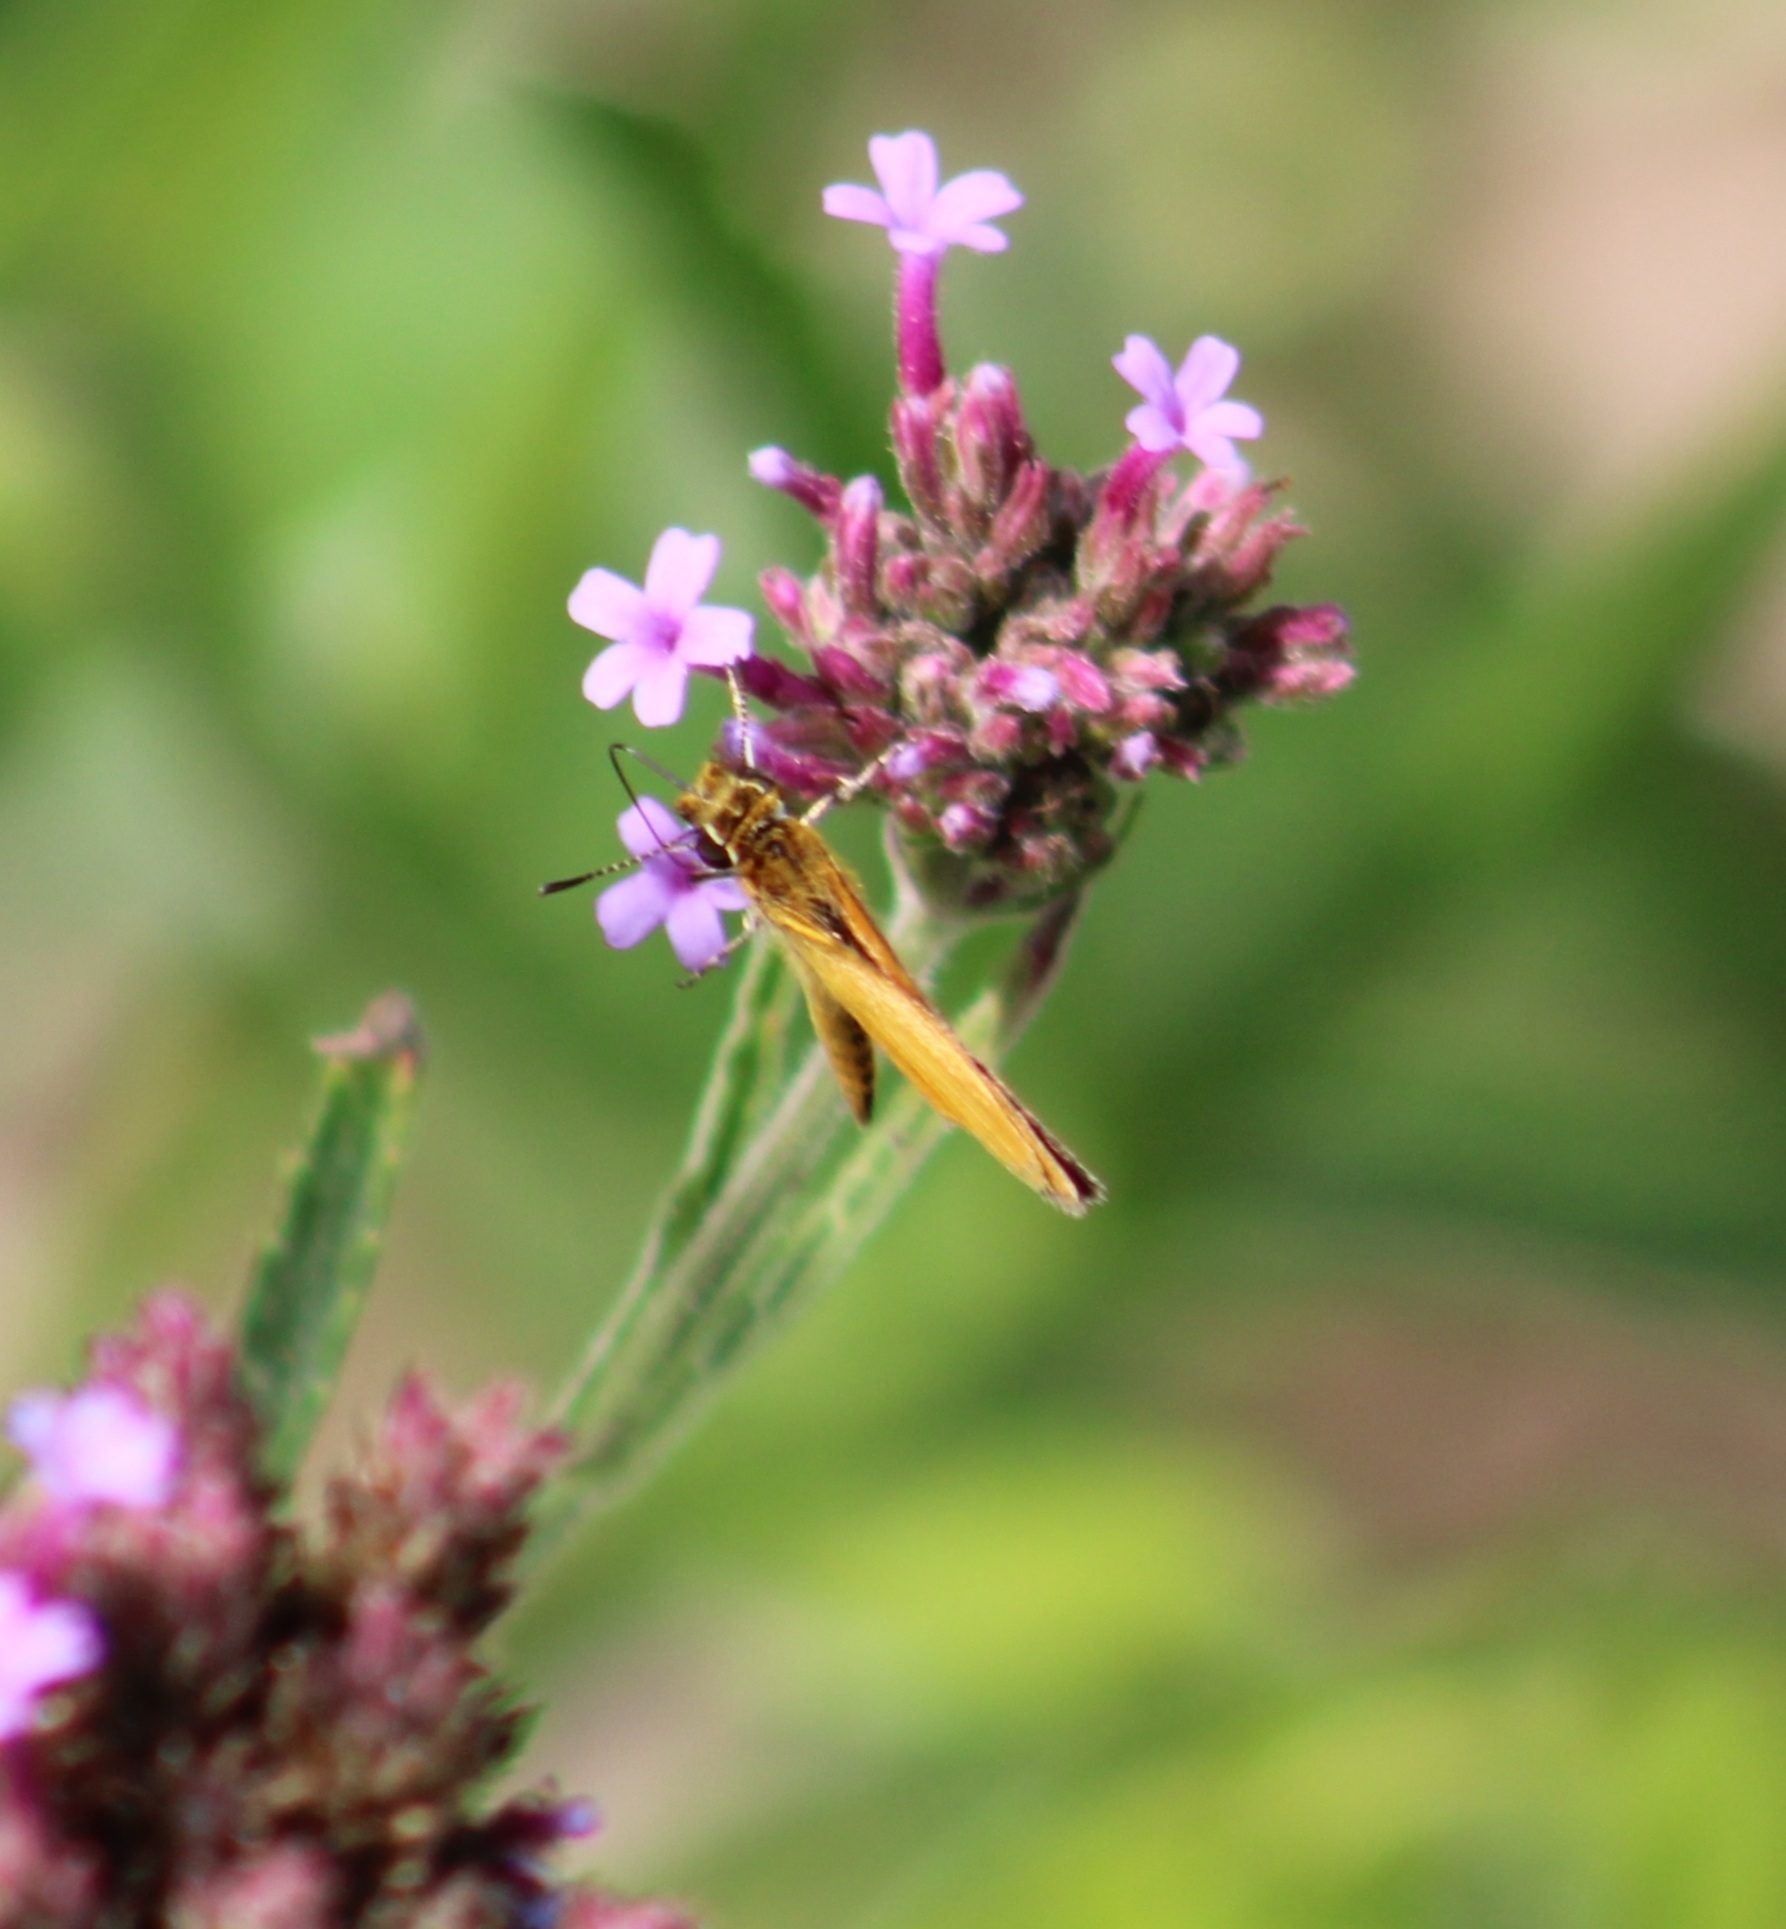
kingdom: Animalia
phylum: Arthropoda
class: Insecta
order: Lepidoptera
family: Hesperiidae
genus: Ancyloxypha
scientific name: Ancyloxypha numitor
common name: Least skipper
